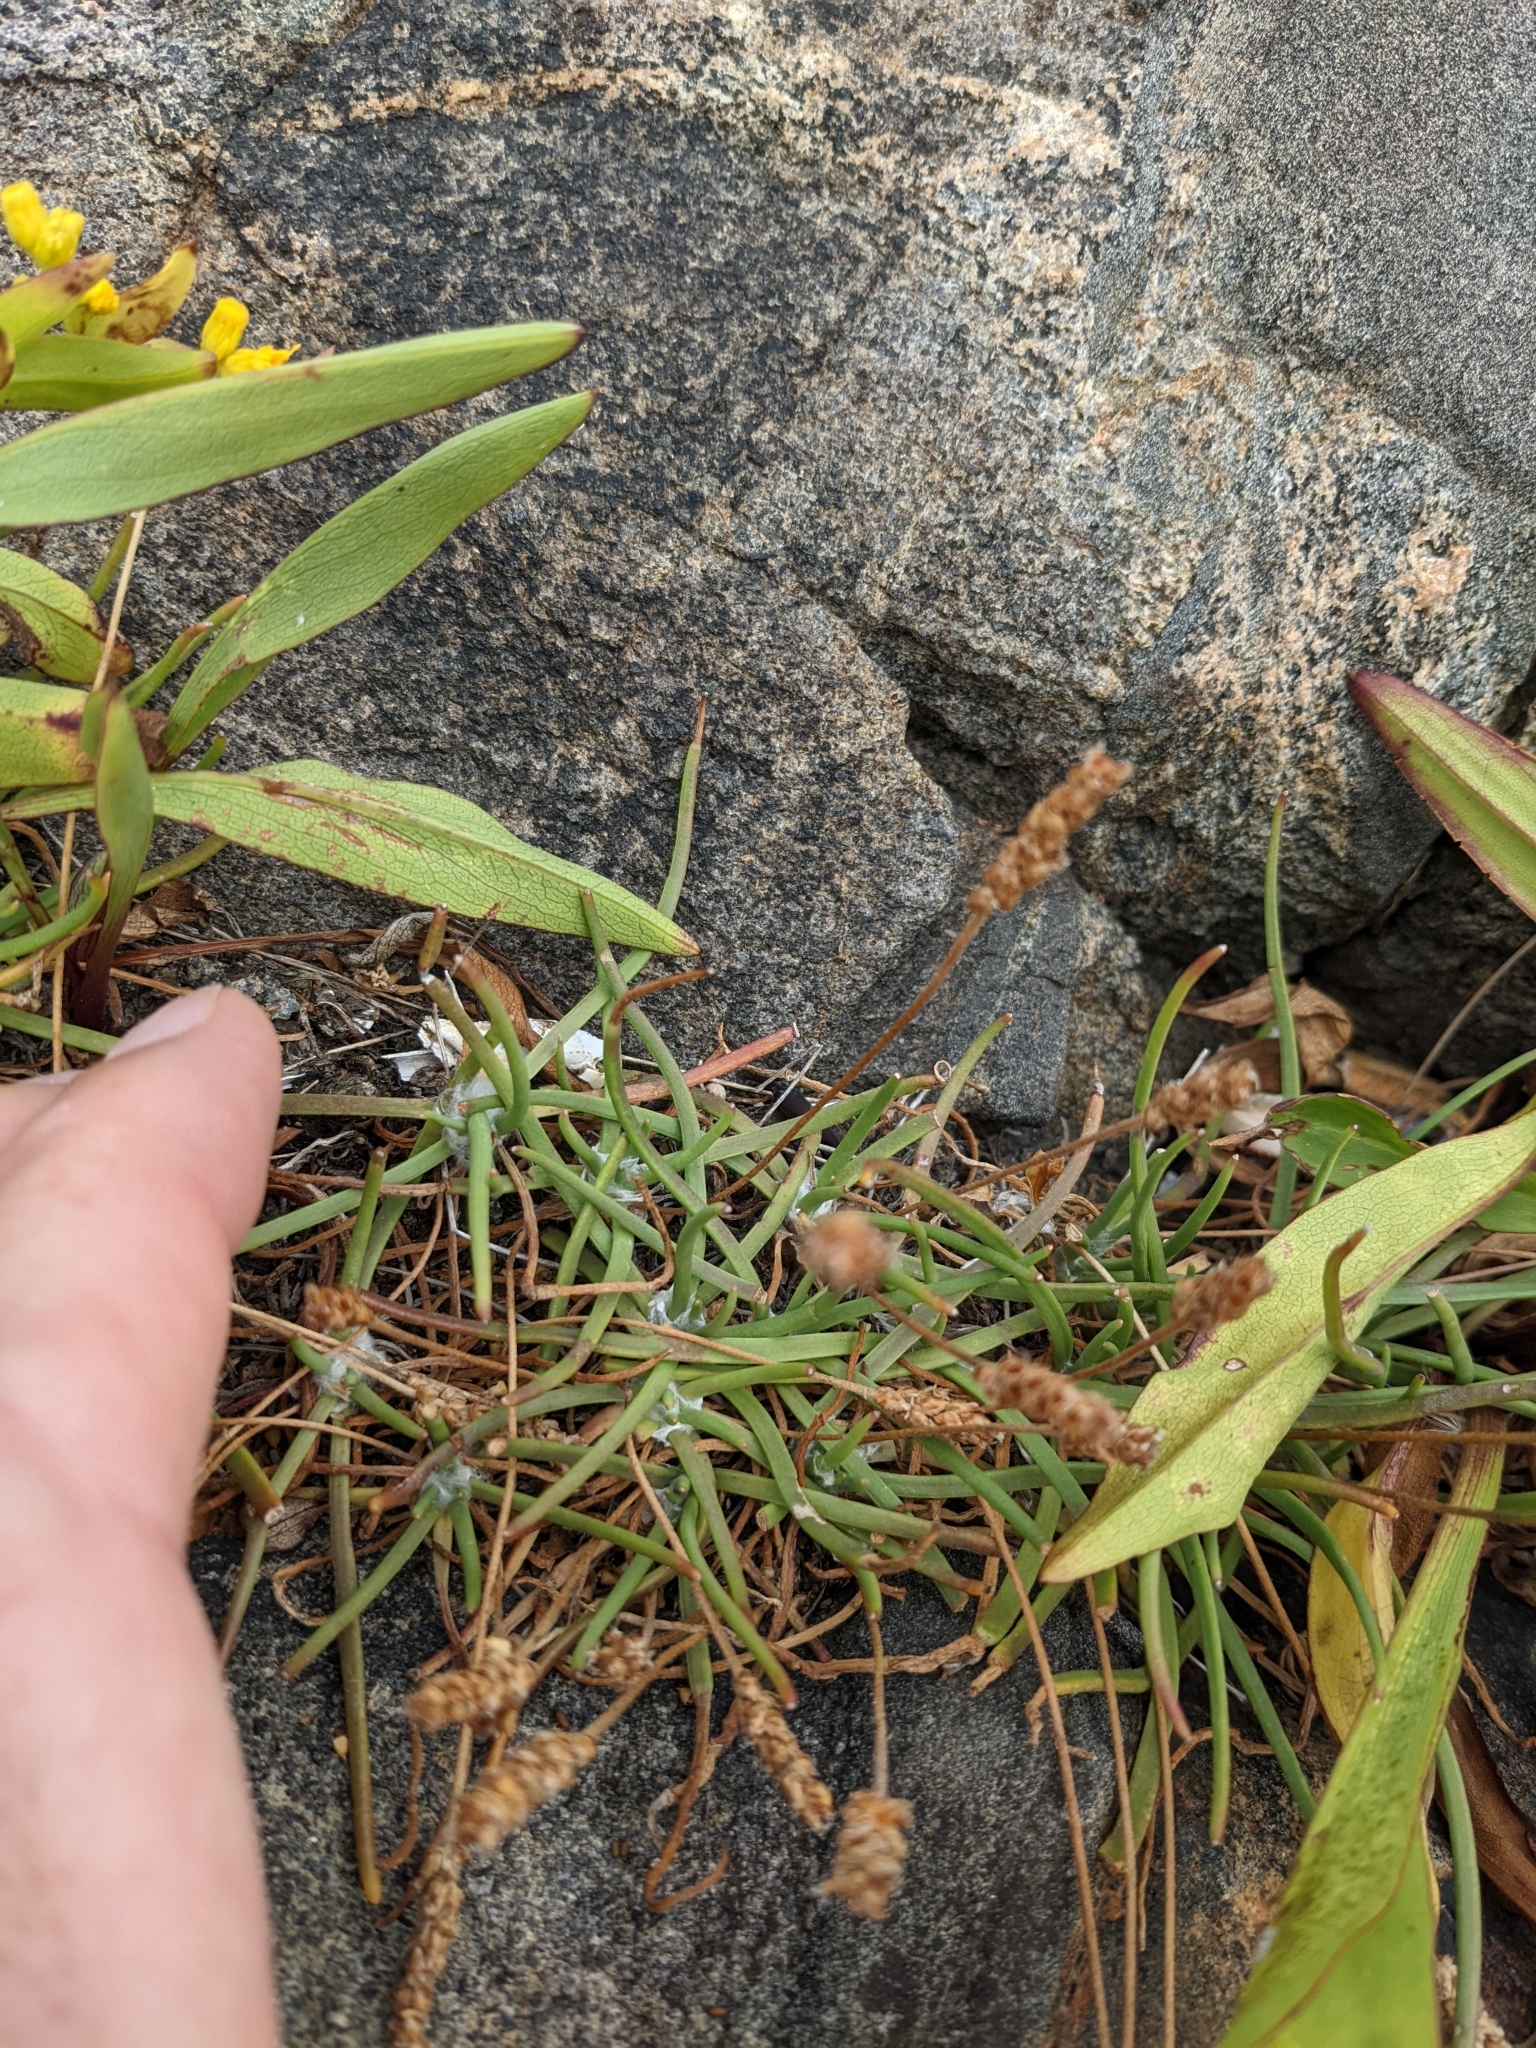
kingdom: Plantae
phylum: Tracheophyta
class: Magnoliopsida
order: Lamiales
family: Plantaginaceae
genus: Plantago
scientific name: Plantago maritima
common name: Sea plantain
